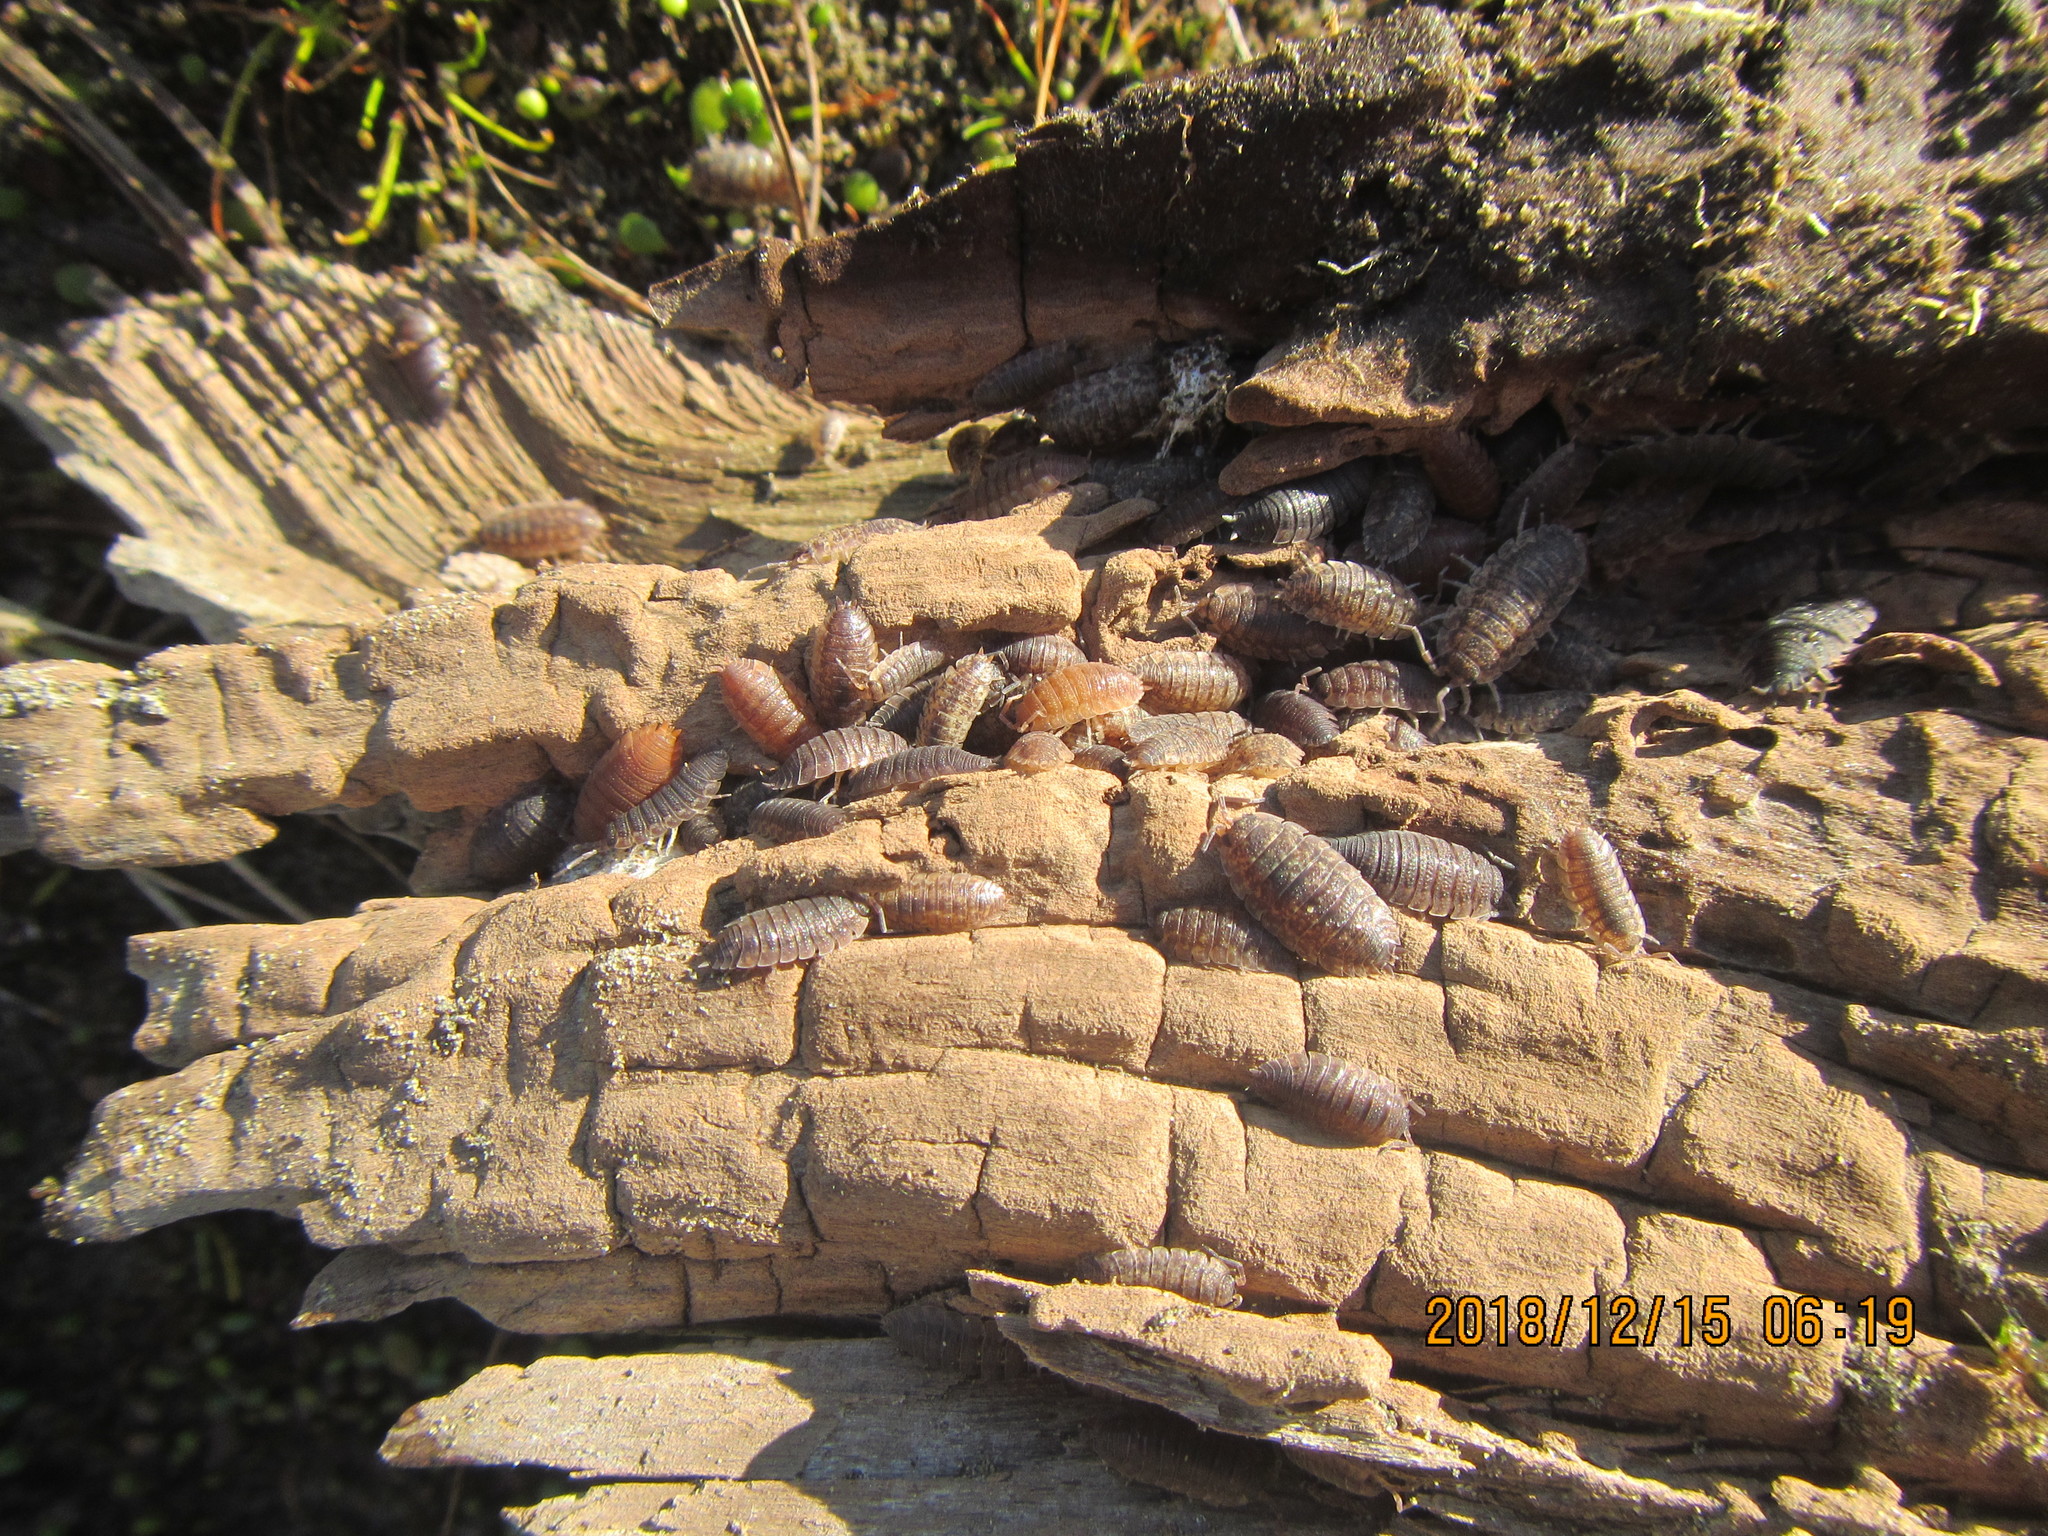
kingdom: Animalia
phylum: Arthropoda
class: Malacostraca
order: Isopoda
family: Porcellionidae
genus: Porcellio
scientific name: Porcellio scaber
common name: Common rough woodlouse
